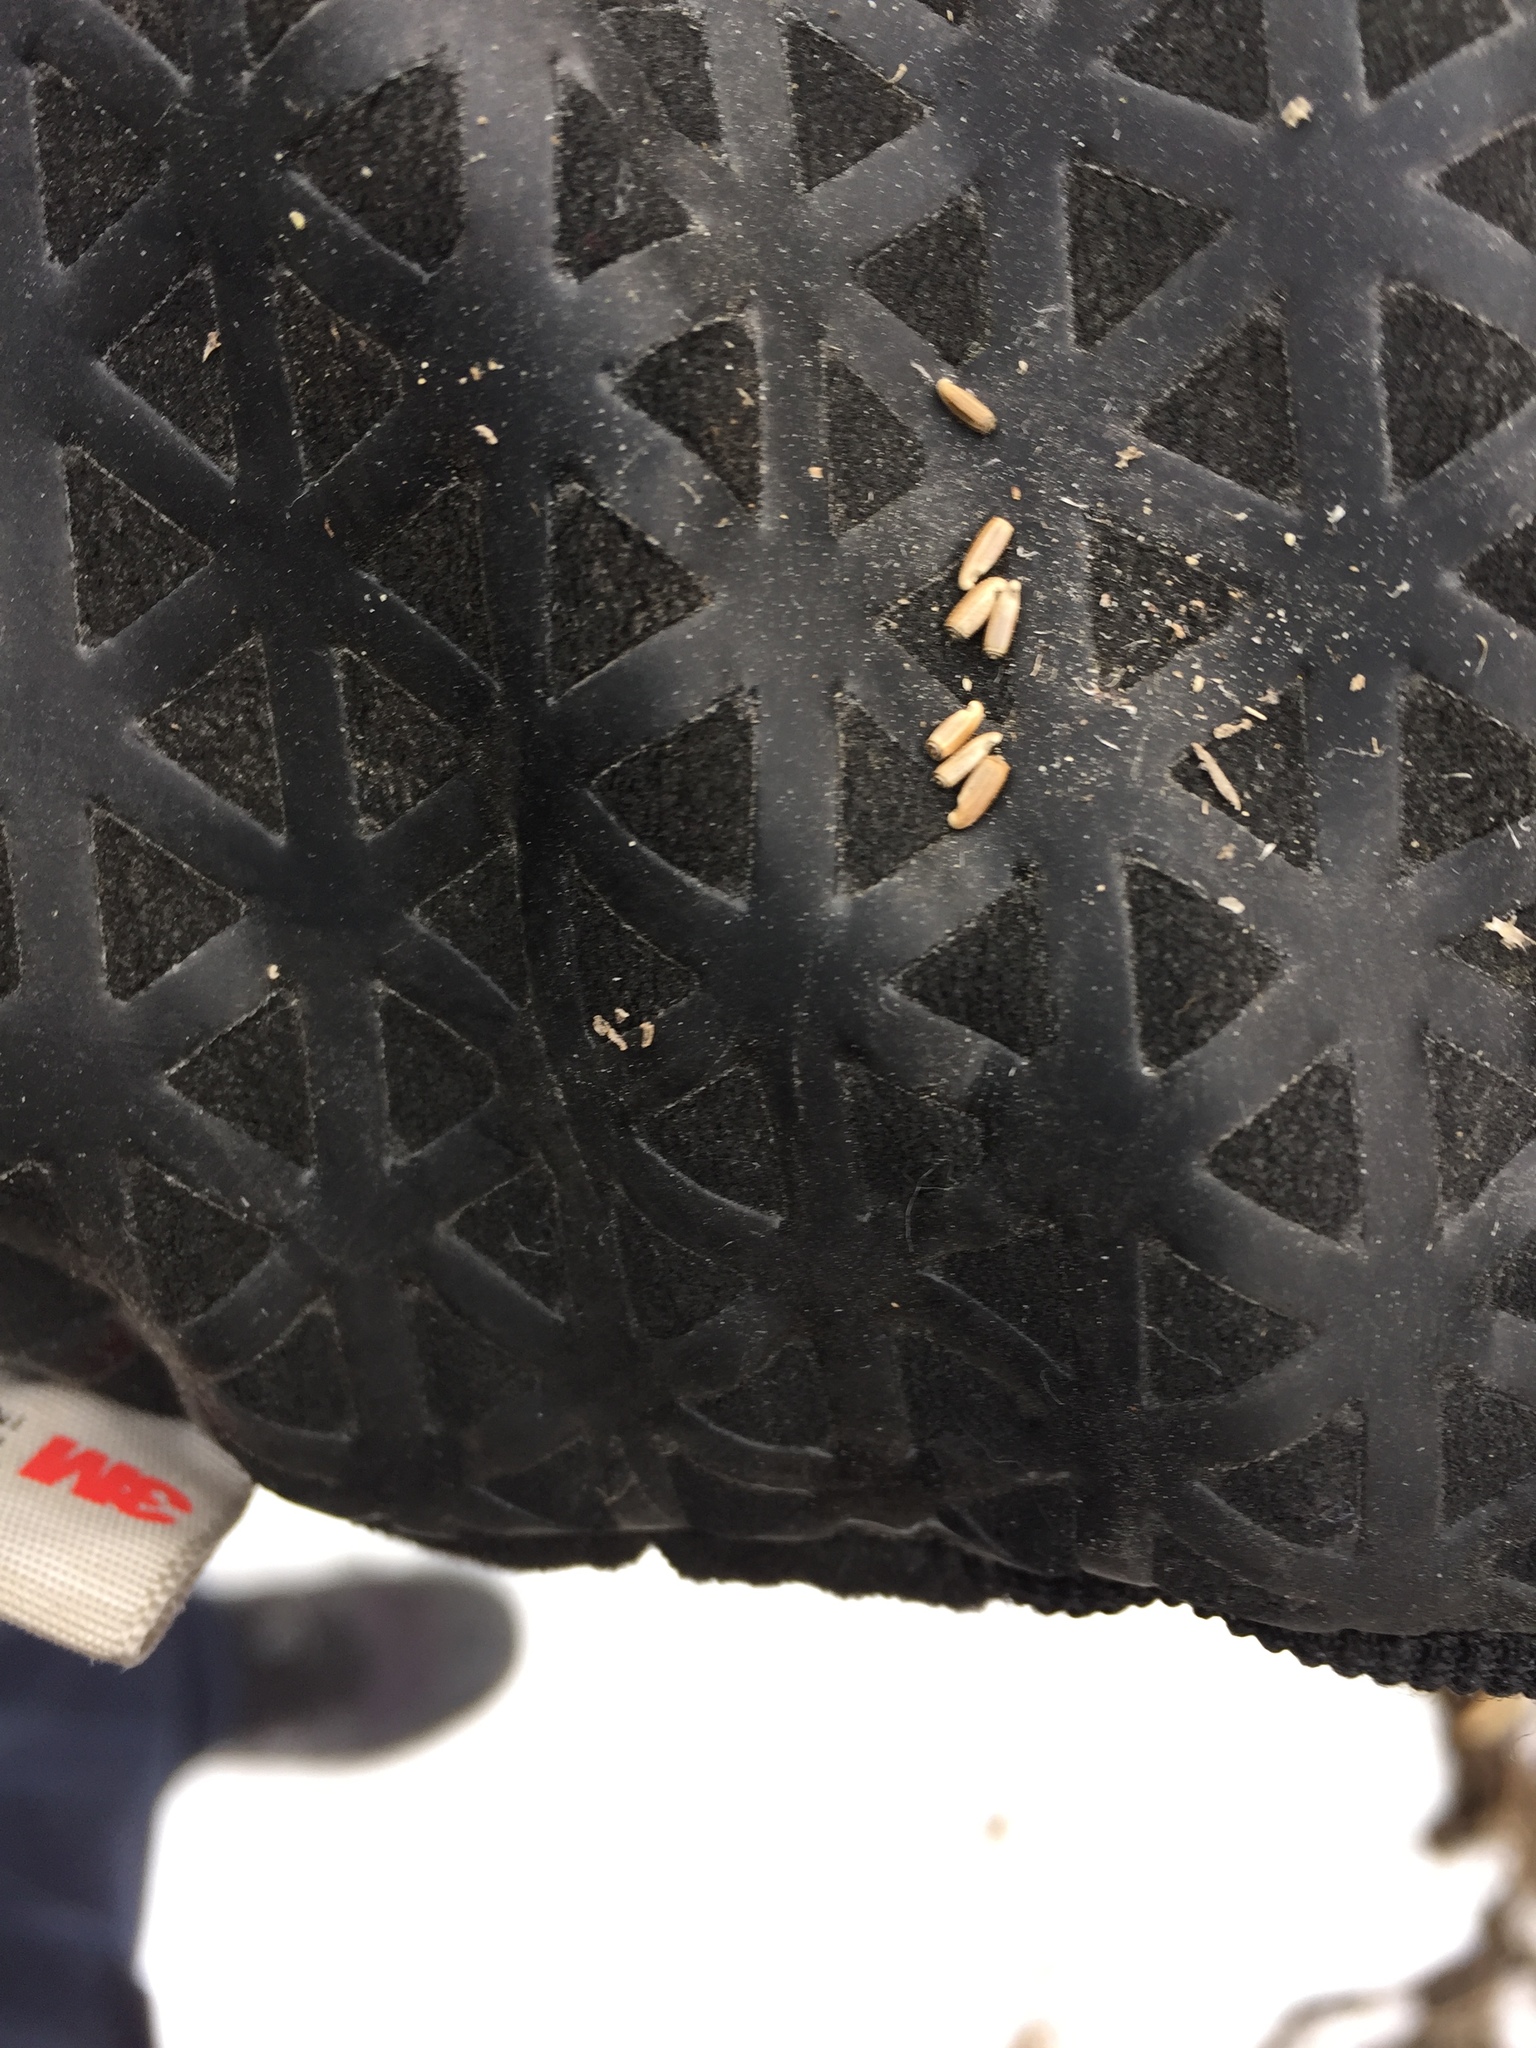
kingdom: Plantae
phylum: Tracheophyta
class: Magnoliopsida
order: Asterales
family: Asteraceae
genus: Centaurea
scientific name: Centaurea diffusa
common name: Diffuse knapweed
